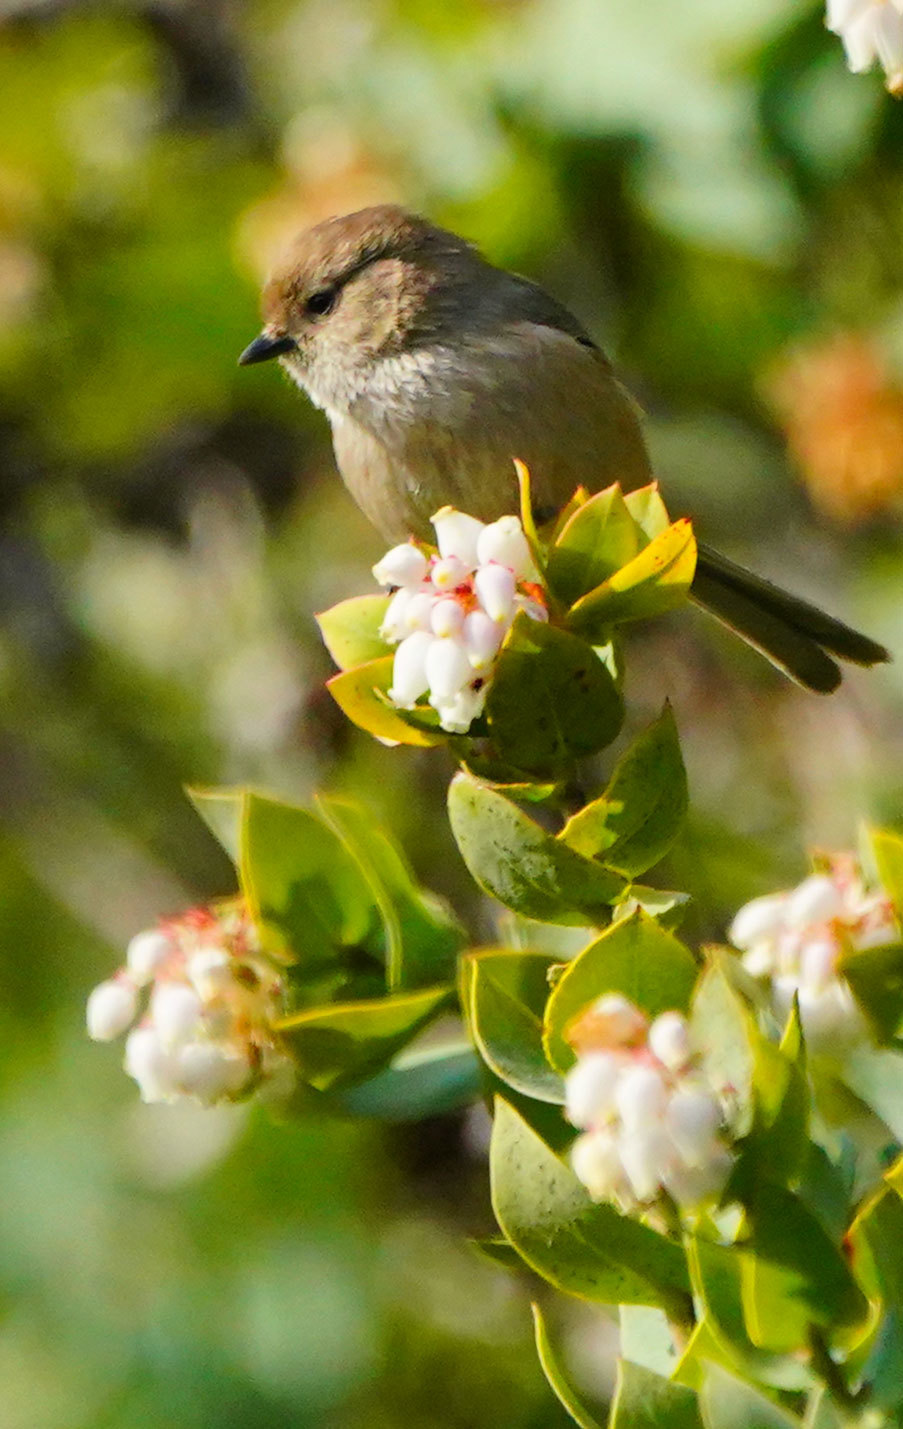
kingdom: Animalia
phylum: Chordata
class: Aves
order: Passeriformes
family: Aegithalidae
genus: Psaltriparus
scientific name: Psaltriparus minimus
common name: American bushtit
